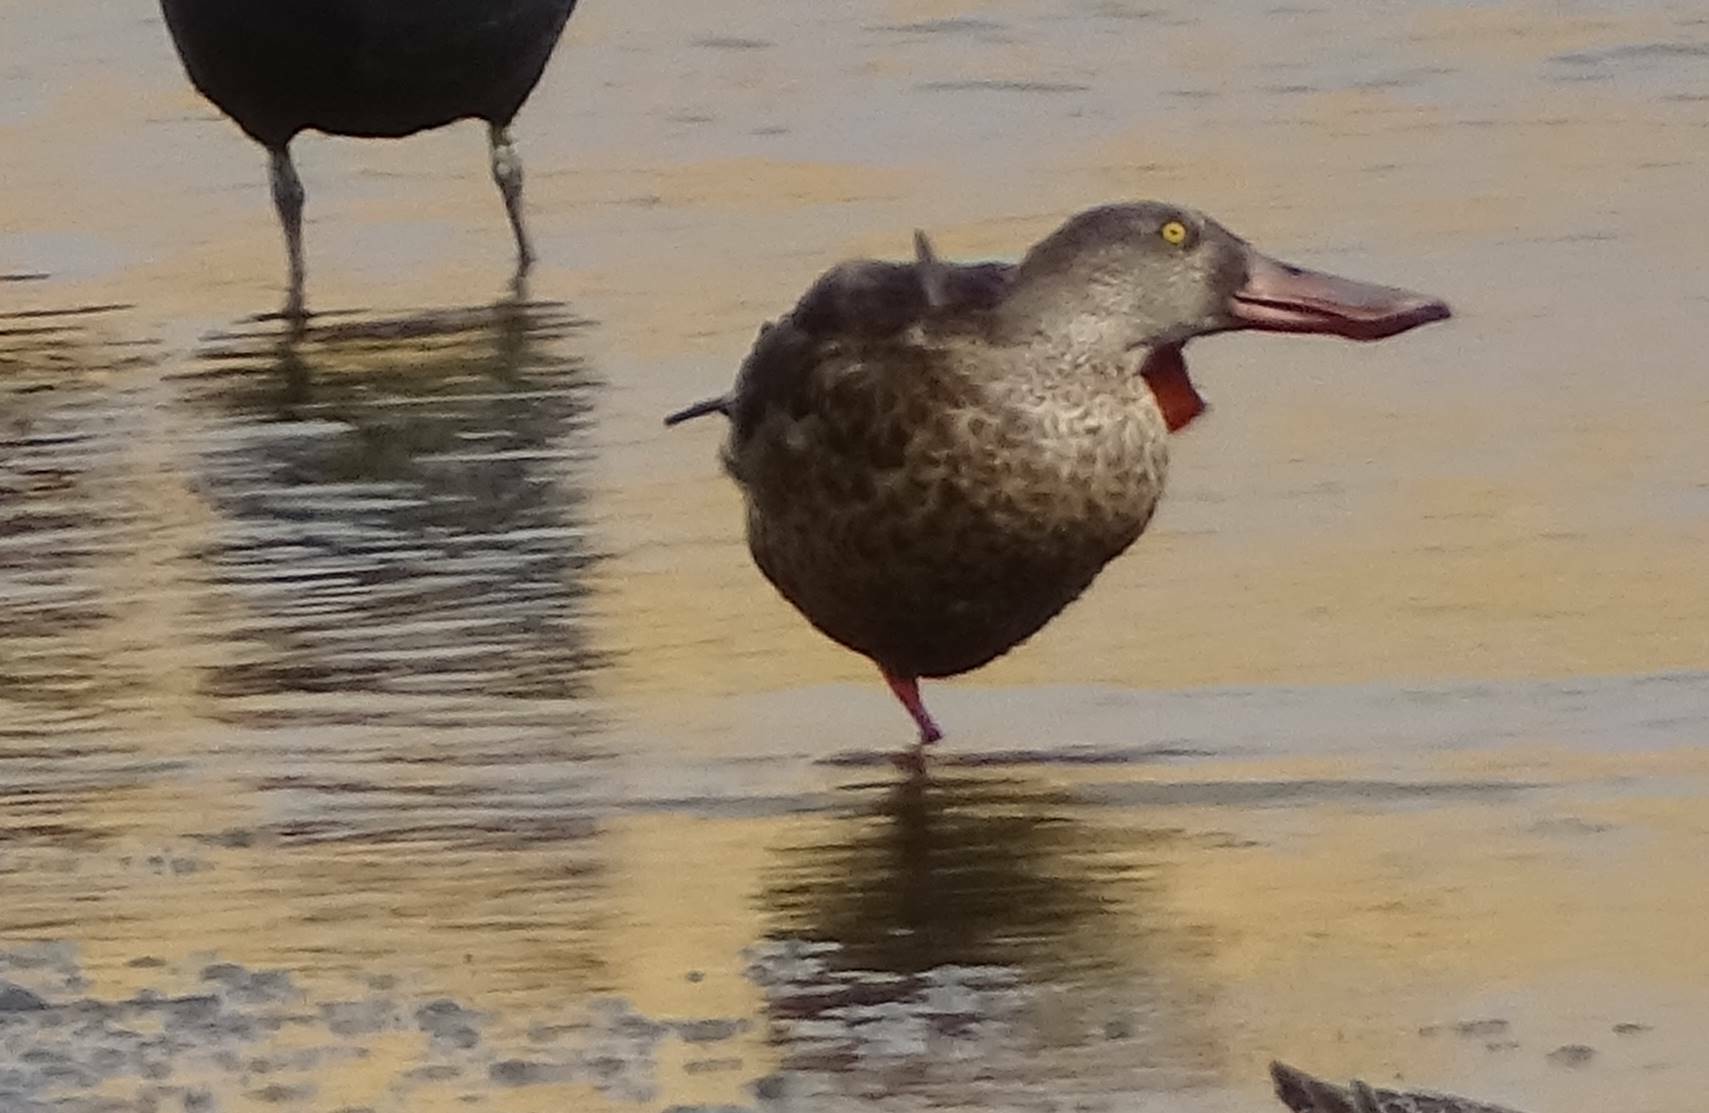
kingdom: Animalia
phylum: Chordata
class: Aves
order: Anseriformes
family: Anatidae
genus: Spatula
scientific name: Spatula clypeata
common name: Northern shoveler
